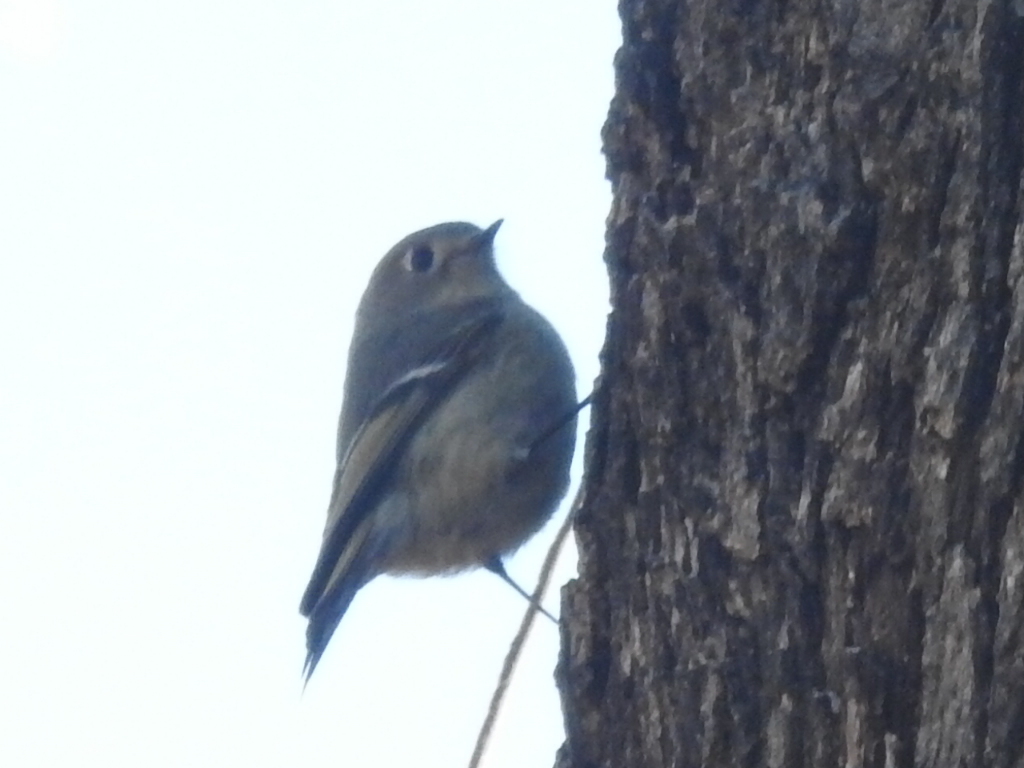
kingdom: Animalia
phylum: Chordata
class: Aves
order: Passeriformes
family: Regulidae
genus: Regulus
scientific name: Regulus calendula
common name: Ruby-crowned kinglet
